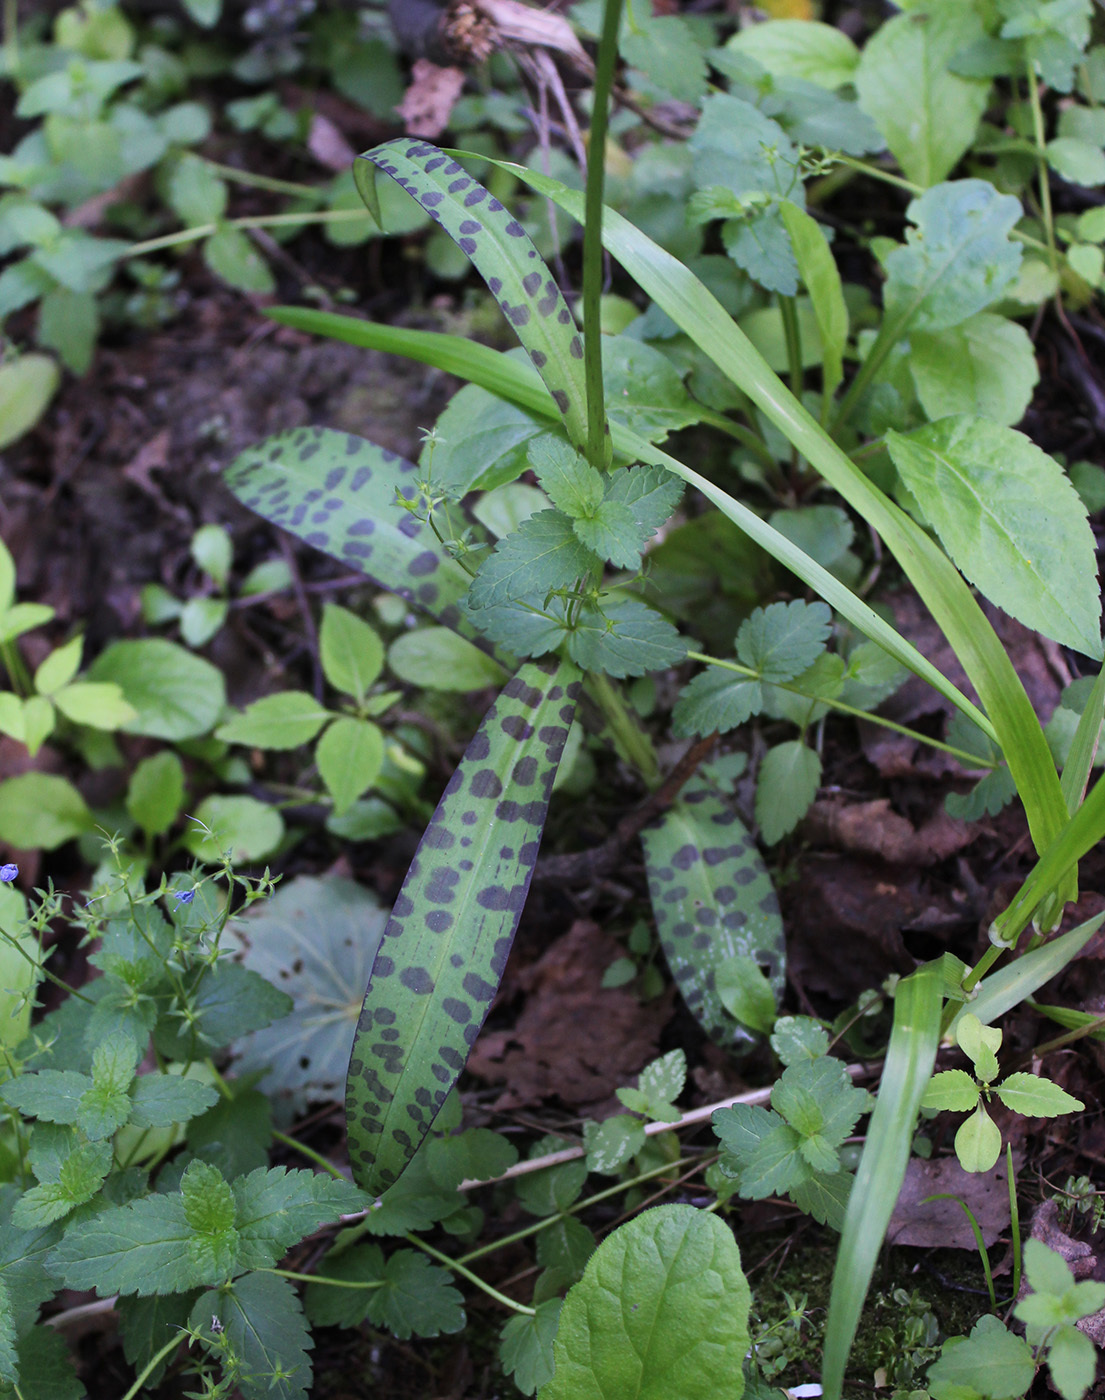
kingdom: Plantae
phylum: Tracheophyta
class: Liliopsida
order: Asparagales
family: Orchidaceae
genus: Dactylorhiza
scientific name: Dactylorhiza maculata
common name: Heath spotted-orchid
